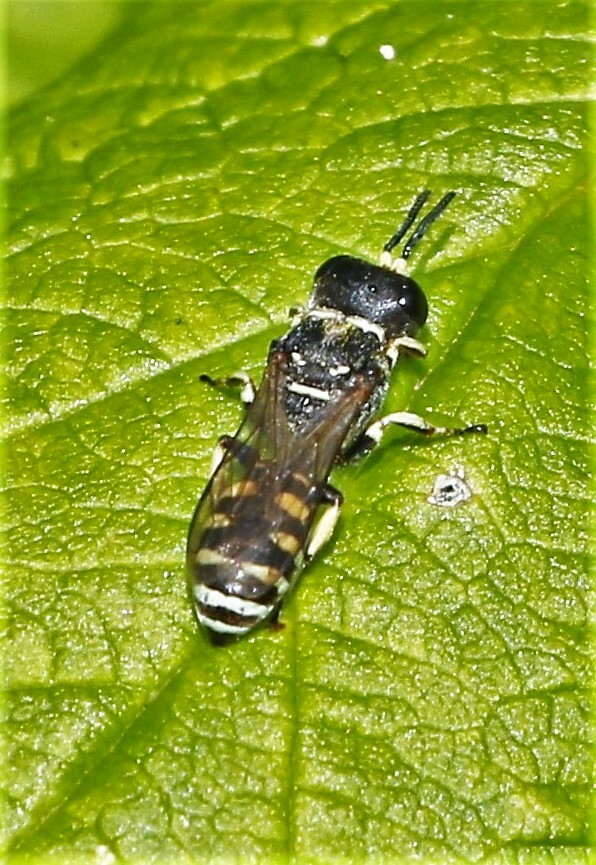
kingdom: Animalia
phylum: Arthropoda
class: Insecta
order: Hymenoptera
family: Crabronidae
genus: Ectemnius
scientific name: Ectemnius dives
